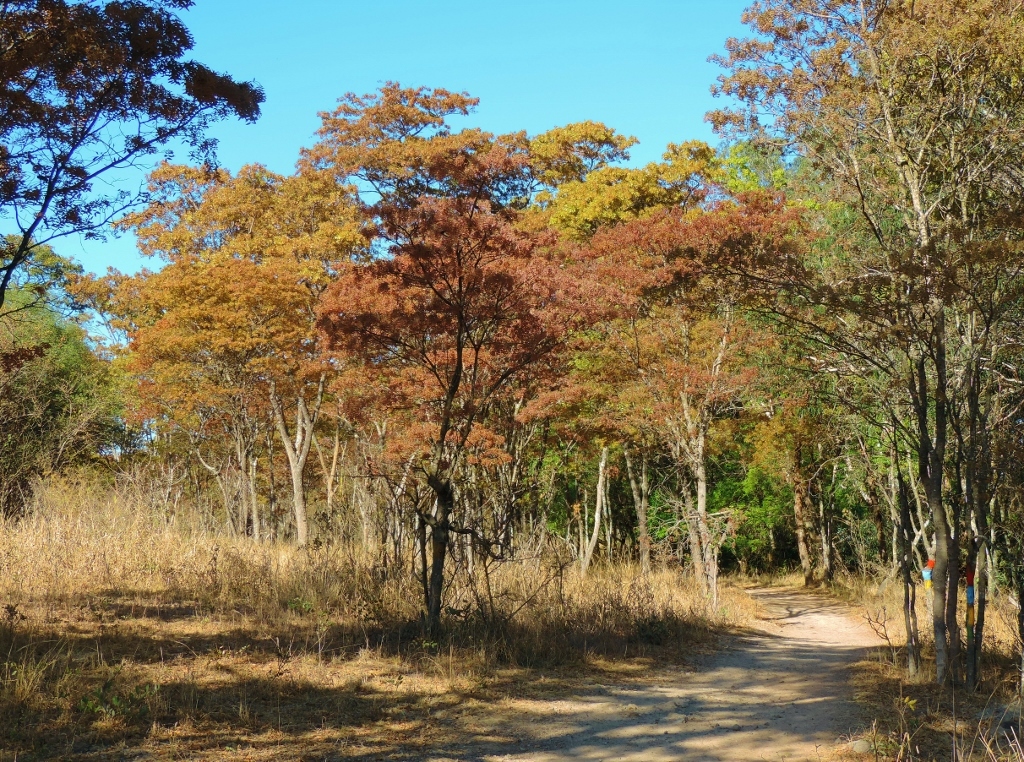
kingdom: Plantae
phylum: Tracheophyta
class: Magnoliopsida
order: Fabales
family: Fabaceae
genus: Brachystegia
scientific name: Brachystegia spiciformis
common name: Zebrawood
